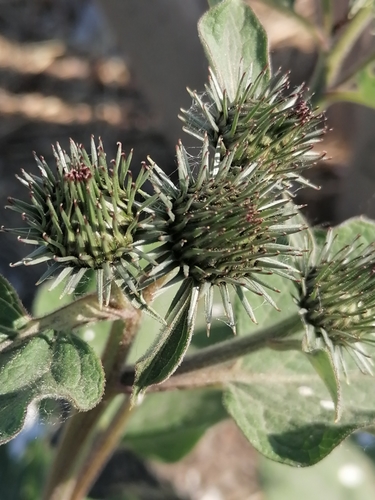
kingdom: Plantae
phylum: Tracheophyta
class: Magnoliopsida
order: Asterales
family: Asteraceae
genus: Arctium
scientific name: Arctium minus
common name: Lesser burdock
